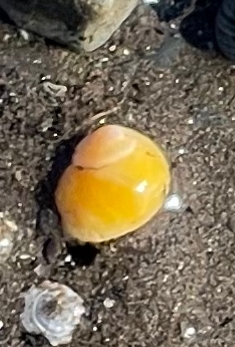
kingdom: Animalia
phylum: Mollusca
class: Gastropoda
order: Littorinimorpha
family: Littorinidae
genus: Littorina
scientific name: Littorina obtusata
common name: Flat periwinkle
